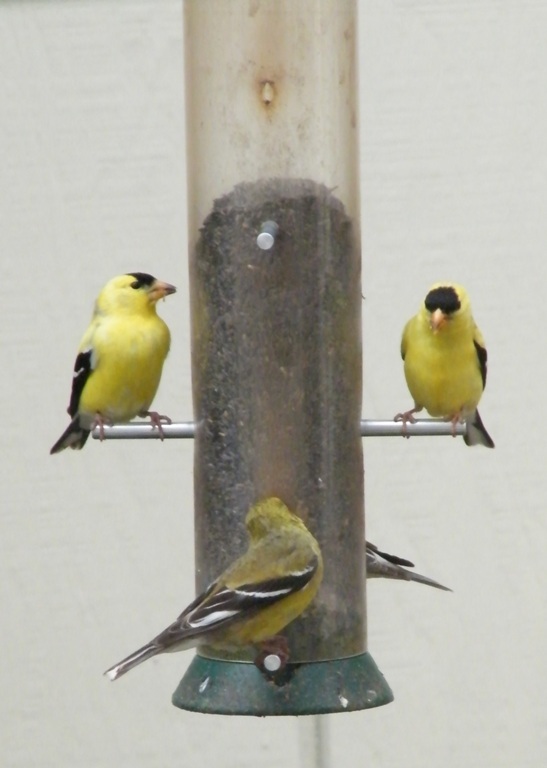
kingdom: Animalia
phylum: Chordata
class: Aves
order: Passeriformes
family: Fringillidae
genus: Spinus
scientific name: Spinus tristis
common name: American goldfinch
